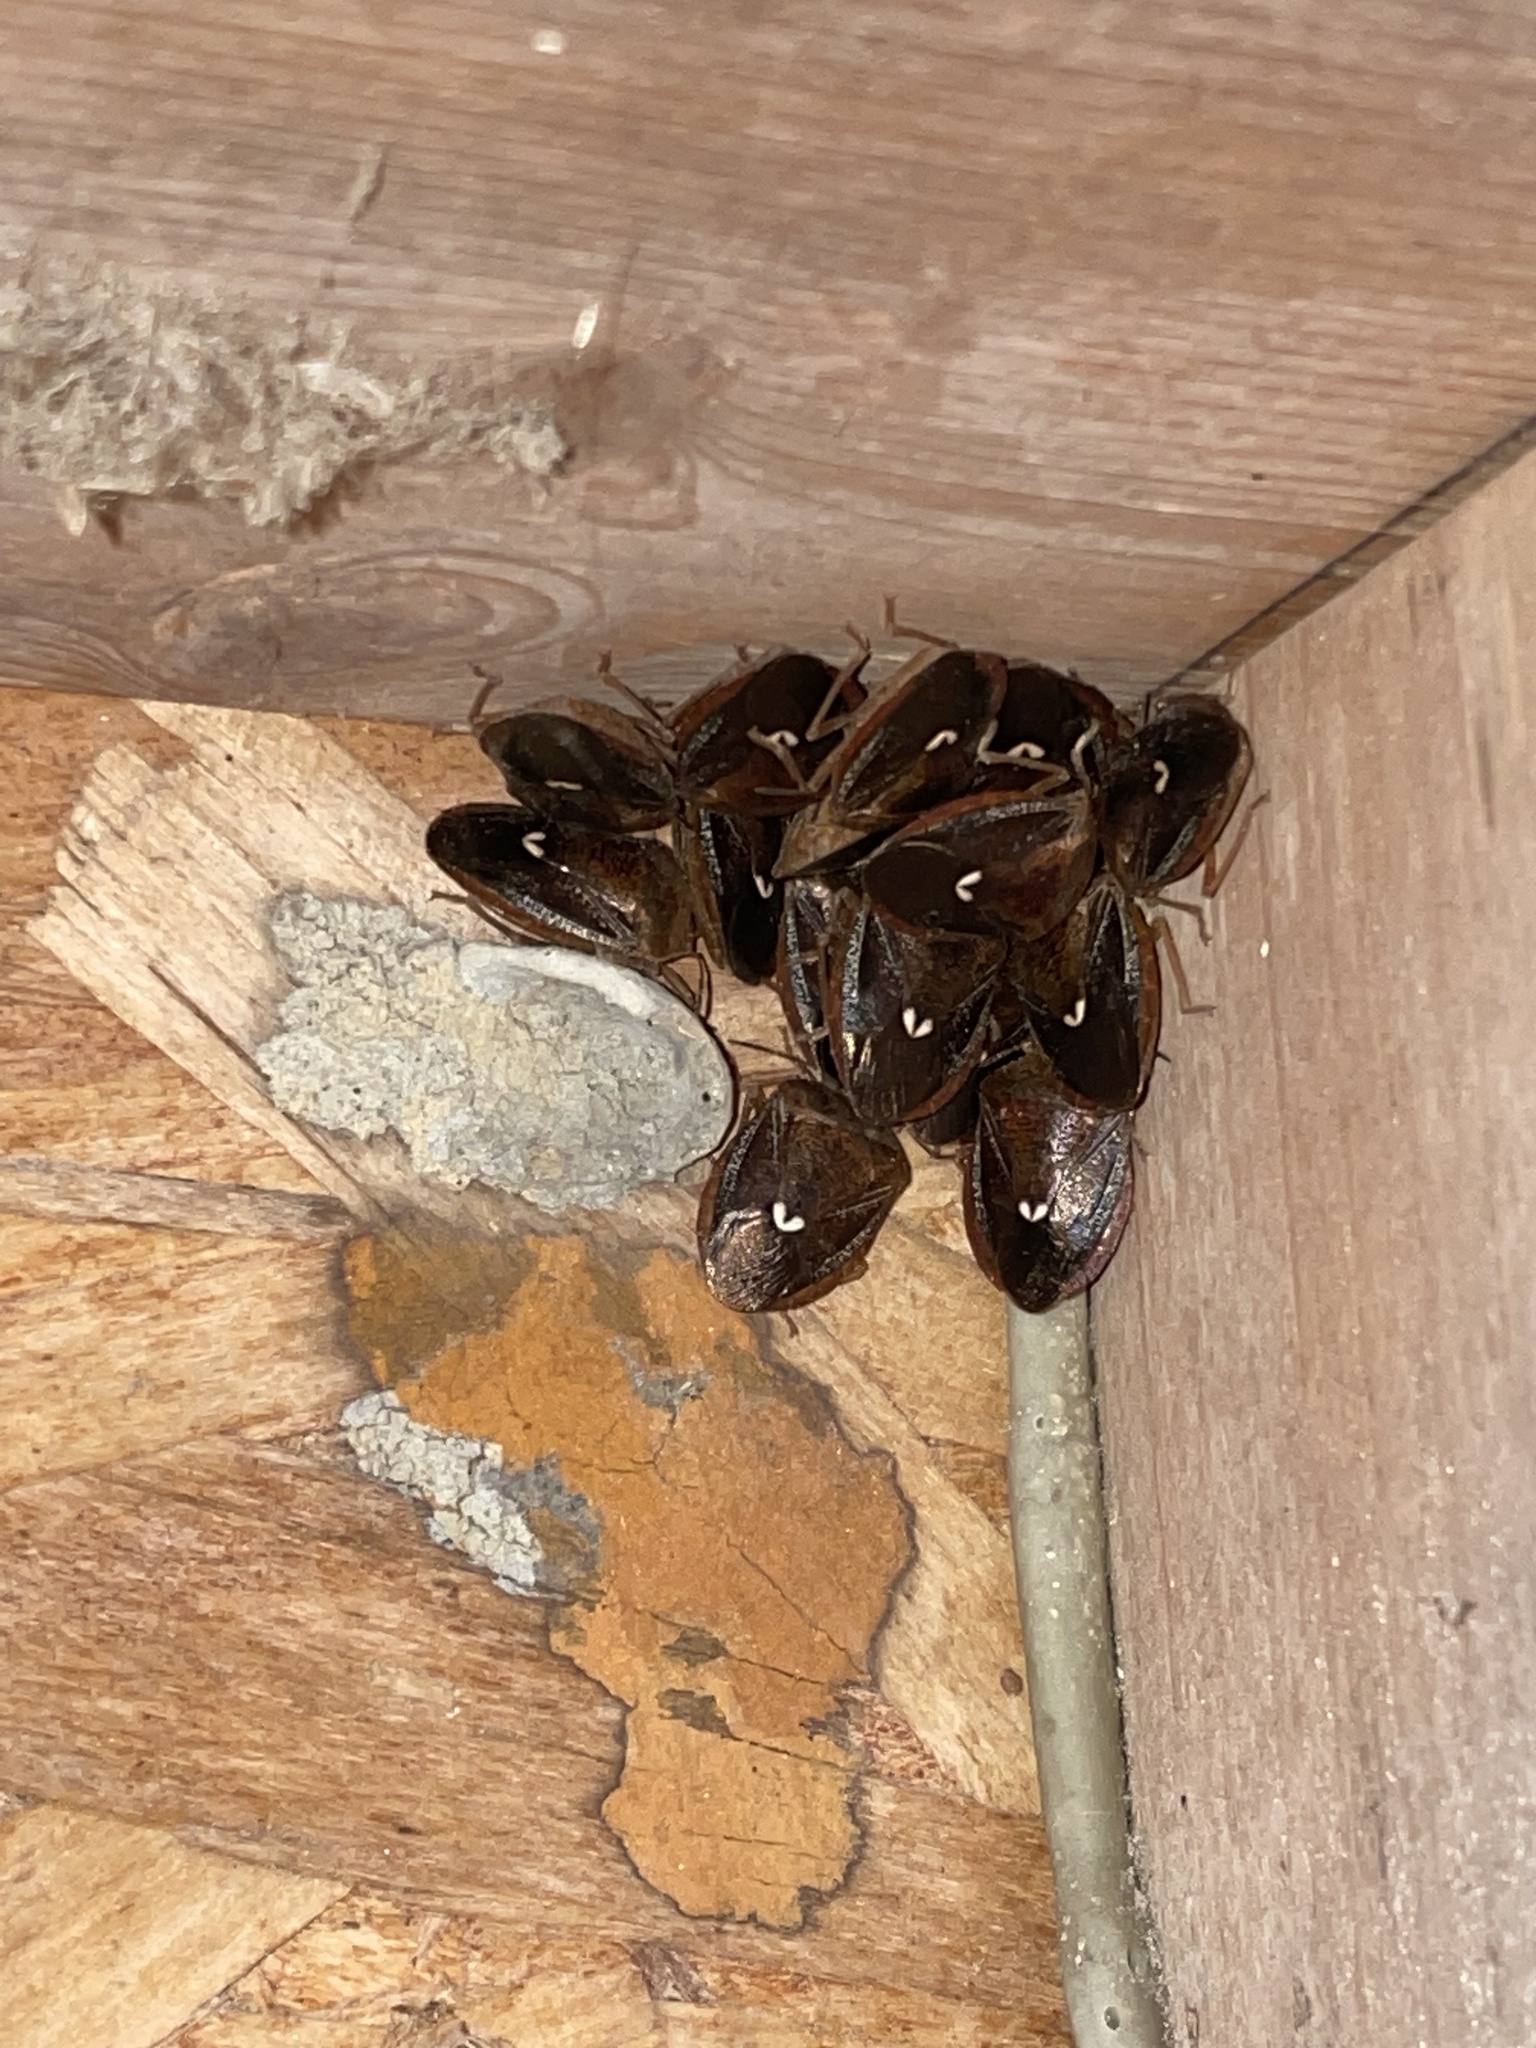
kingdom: Animalia
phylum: Arthropoda
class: Insecta
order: Hemiptera
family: Pentatomidae
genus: Edessa
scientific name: Edessa bifida
